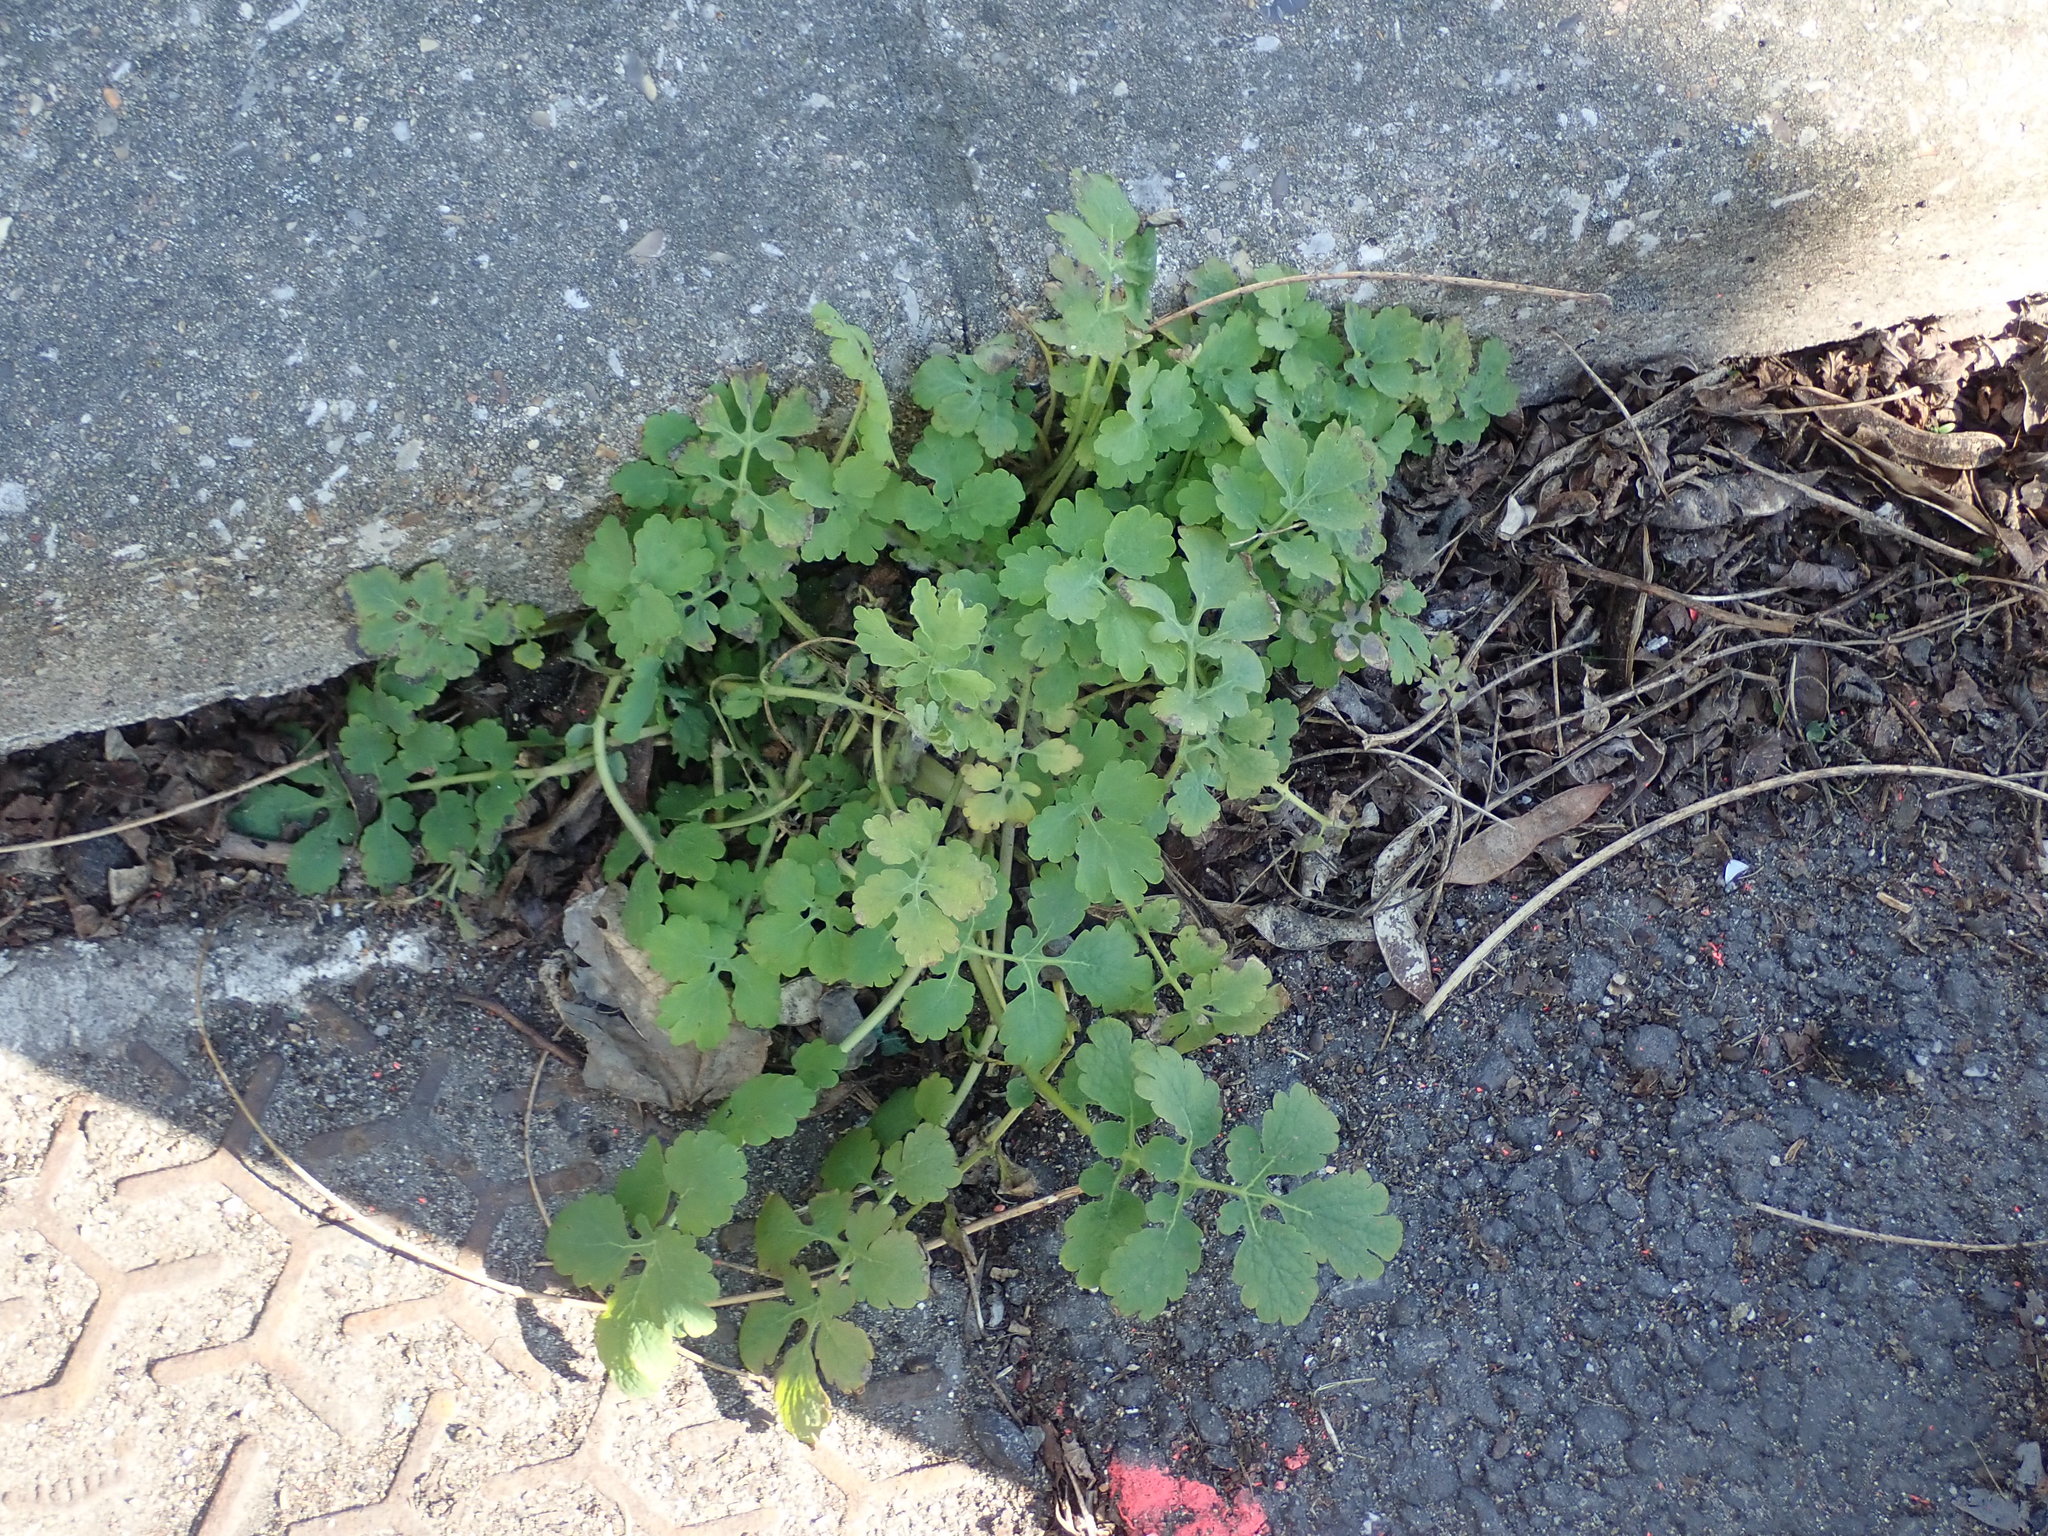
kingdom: Plantae
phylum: Tracheophyta
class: Magnoliopsida
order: Ranunculales
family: Papaveraceae
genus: Chelidonium
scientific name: Chelidonium majus
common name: Greater celandine
